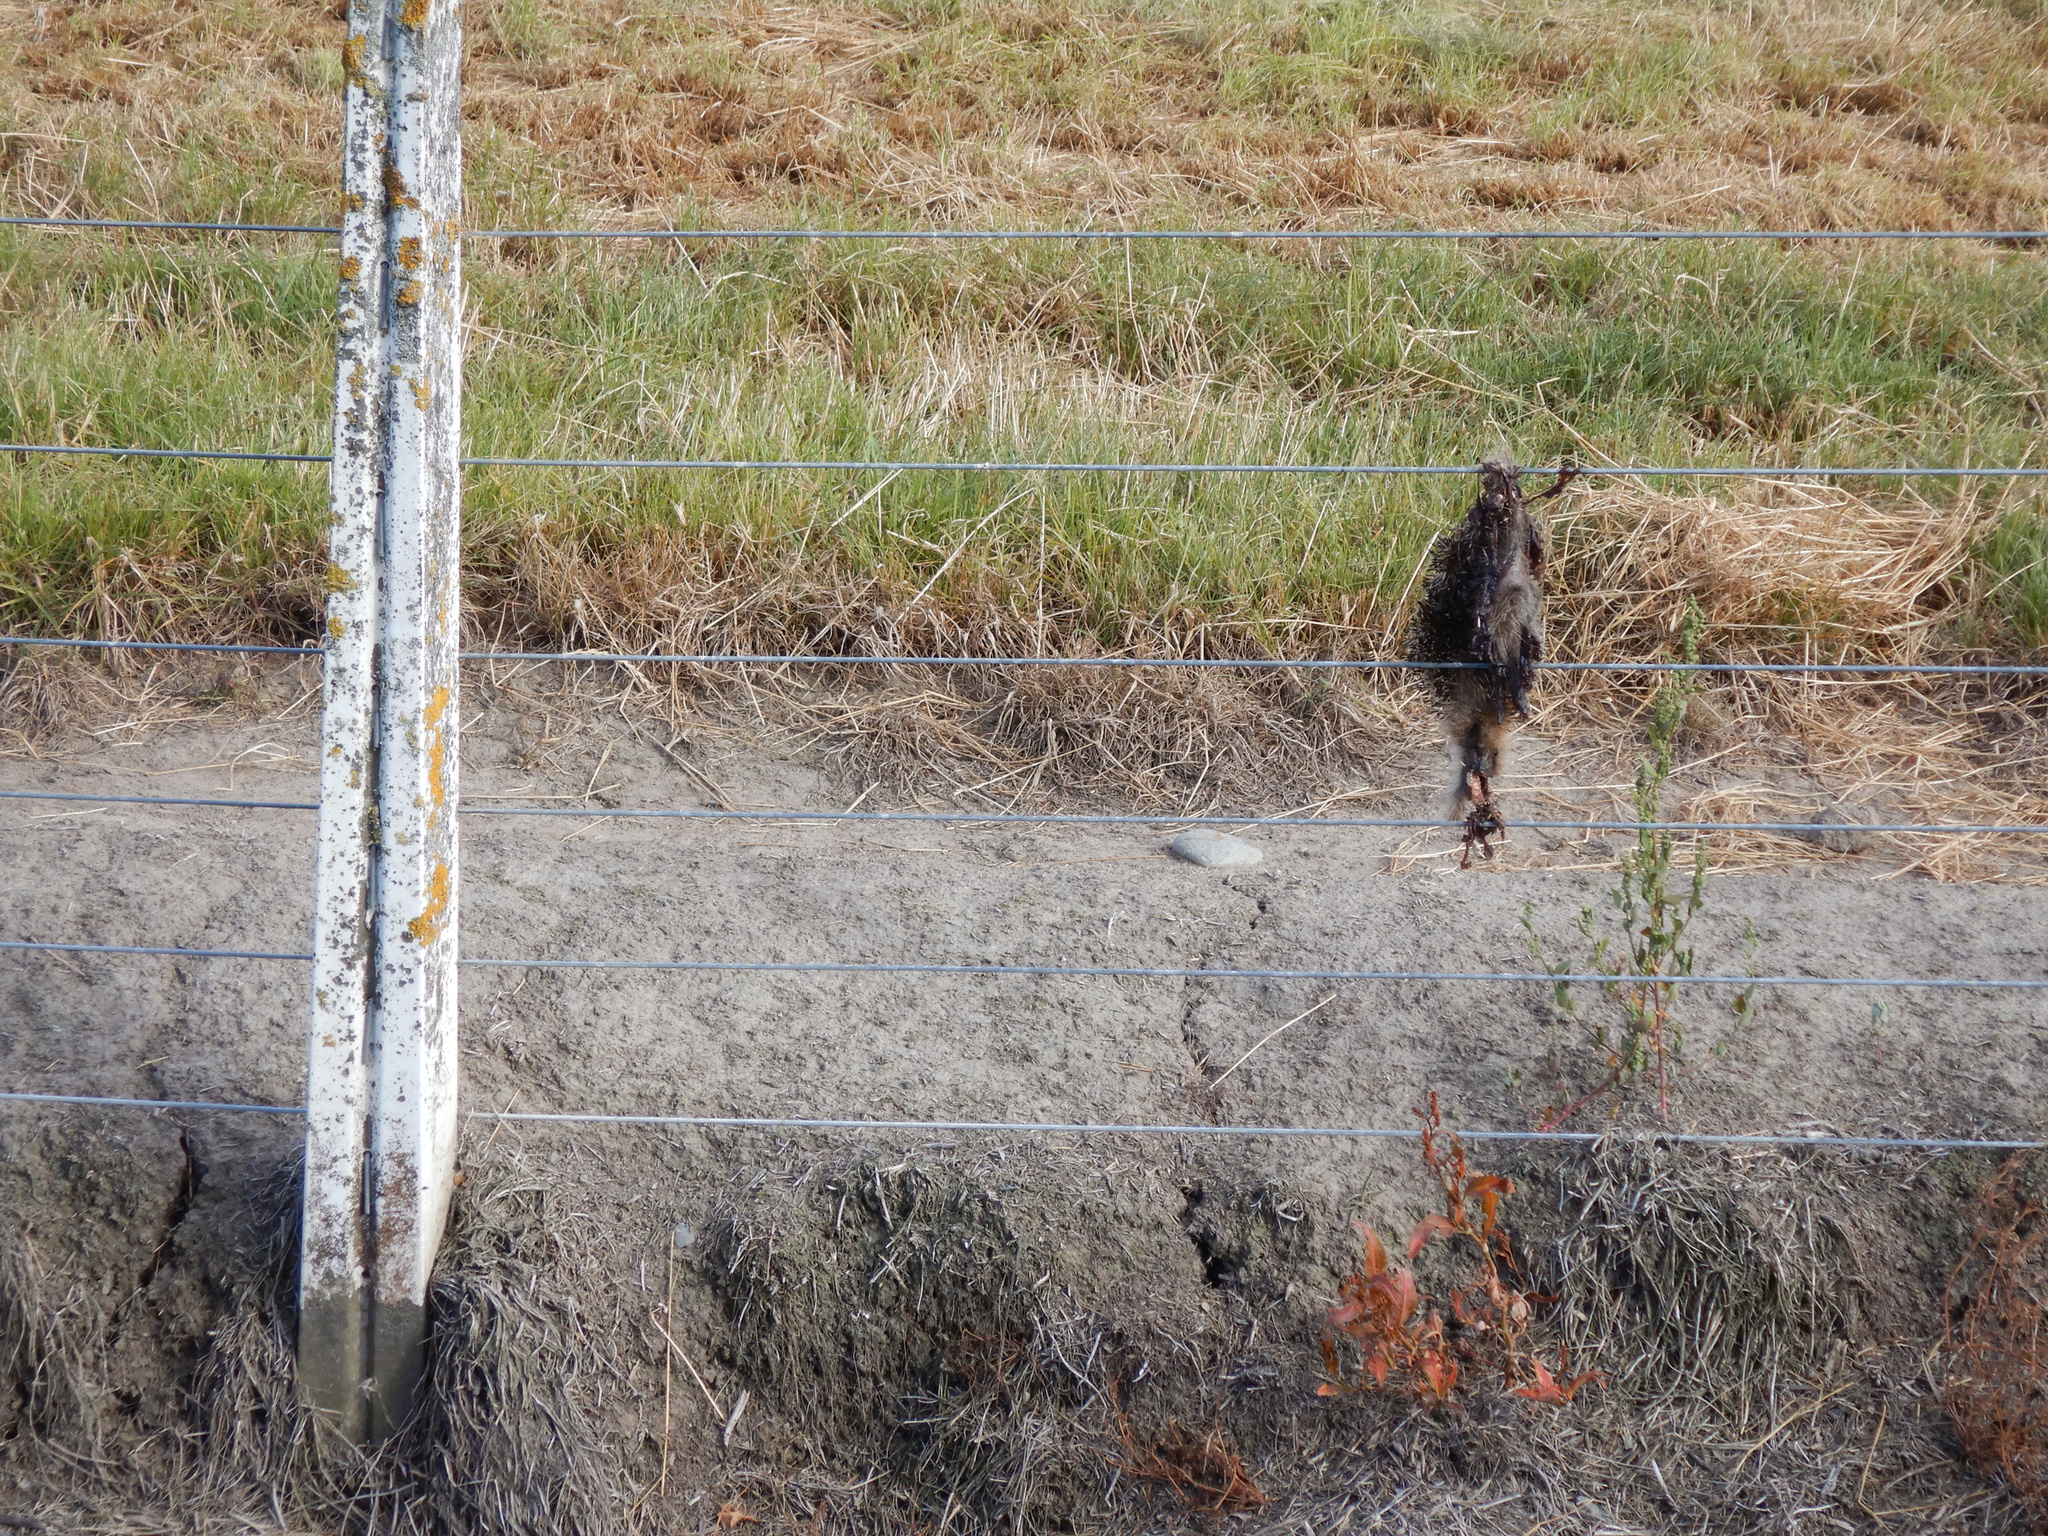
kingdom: Animalia
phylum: Chordata
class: Mammalia
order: Erinaceomorpha
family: Erinaceidae
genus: Erinaceus
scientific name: Erinaceus europaeus
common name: West european hedgehog
